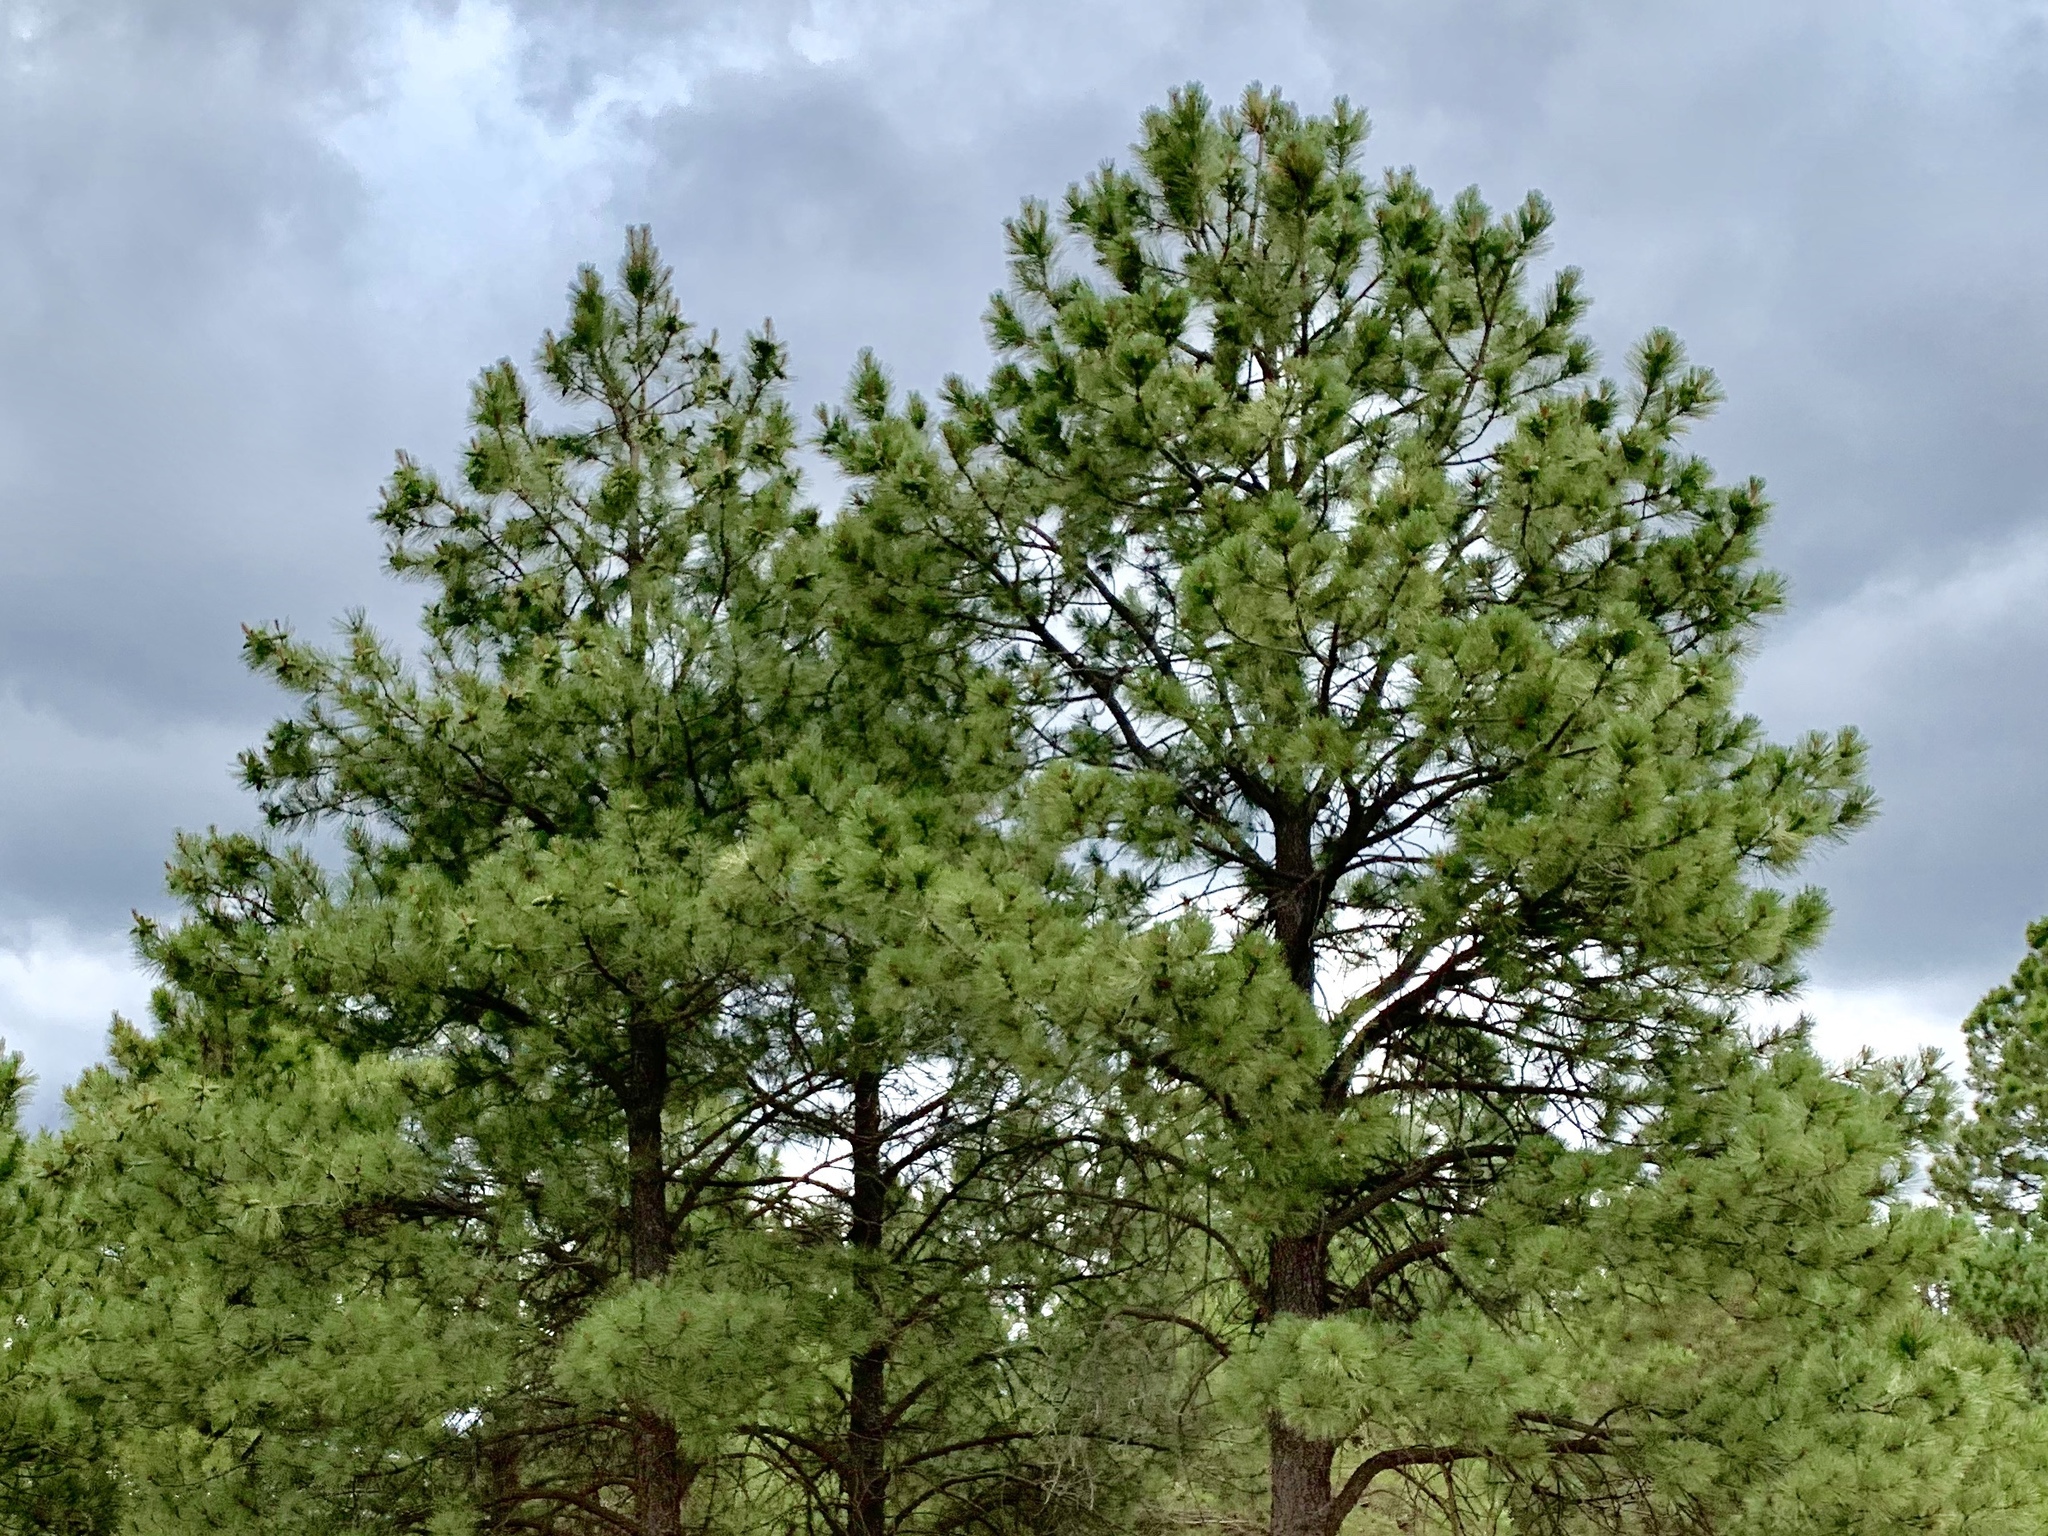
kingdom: Plantae
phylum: Tracheophyta
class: Pinopsida
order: Pinales
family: Pinaceae
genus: Pinus
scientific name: Pinus ponderosa
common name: Western yellow-pine
